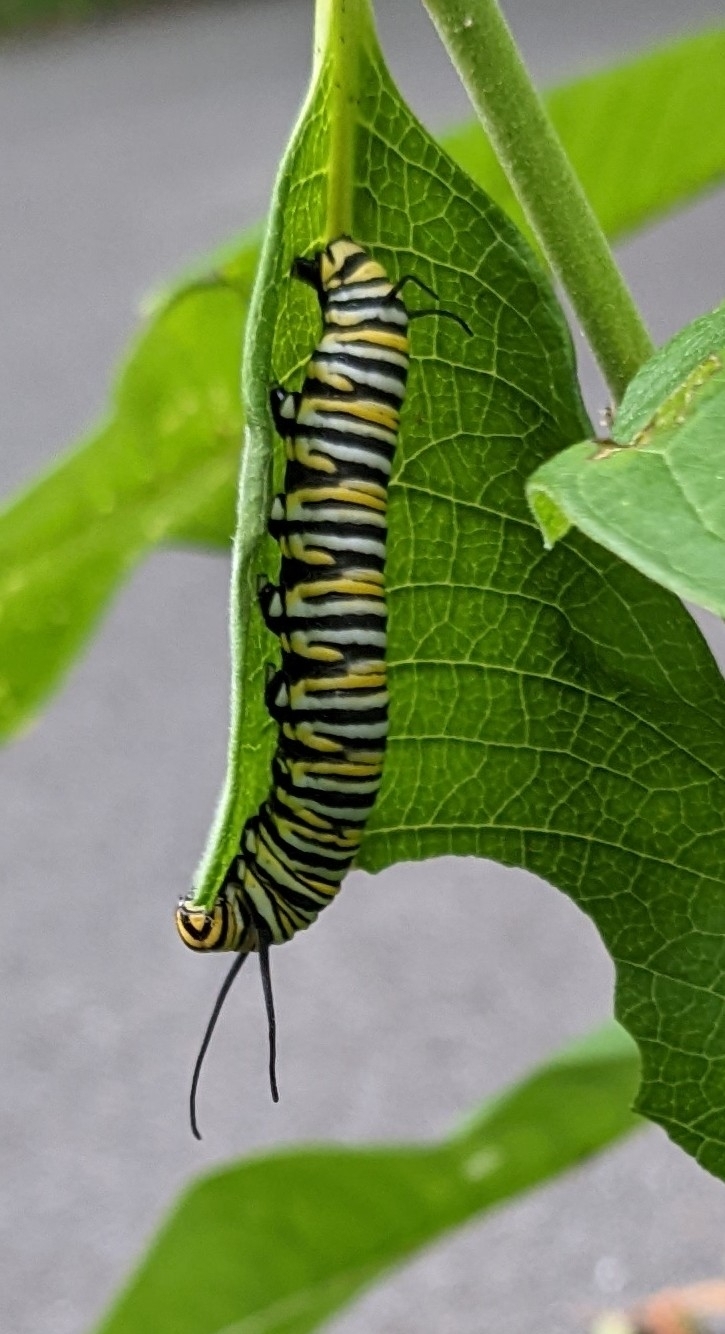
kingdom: Animalia
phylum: Arthropoda
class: Insecta
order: Lepidoptera
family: Nymphalidae
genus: Danaus
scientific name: Danaus plexippus
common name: Monarch
